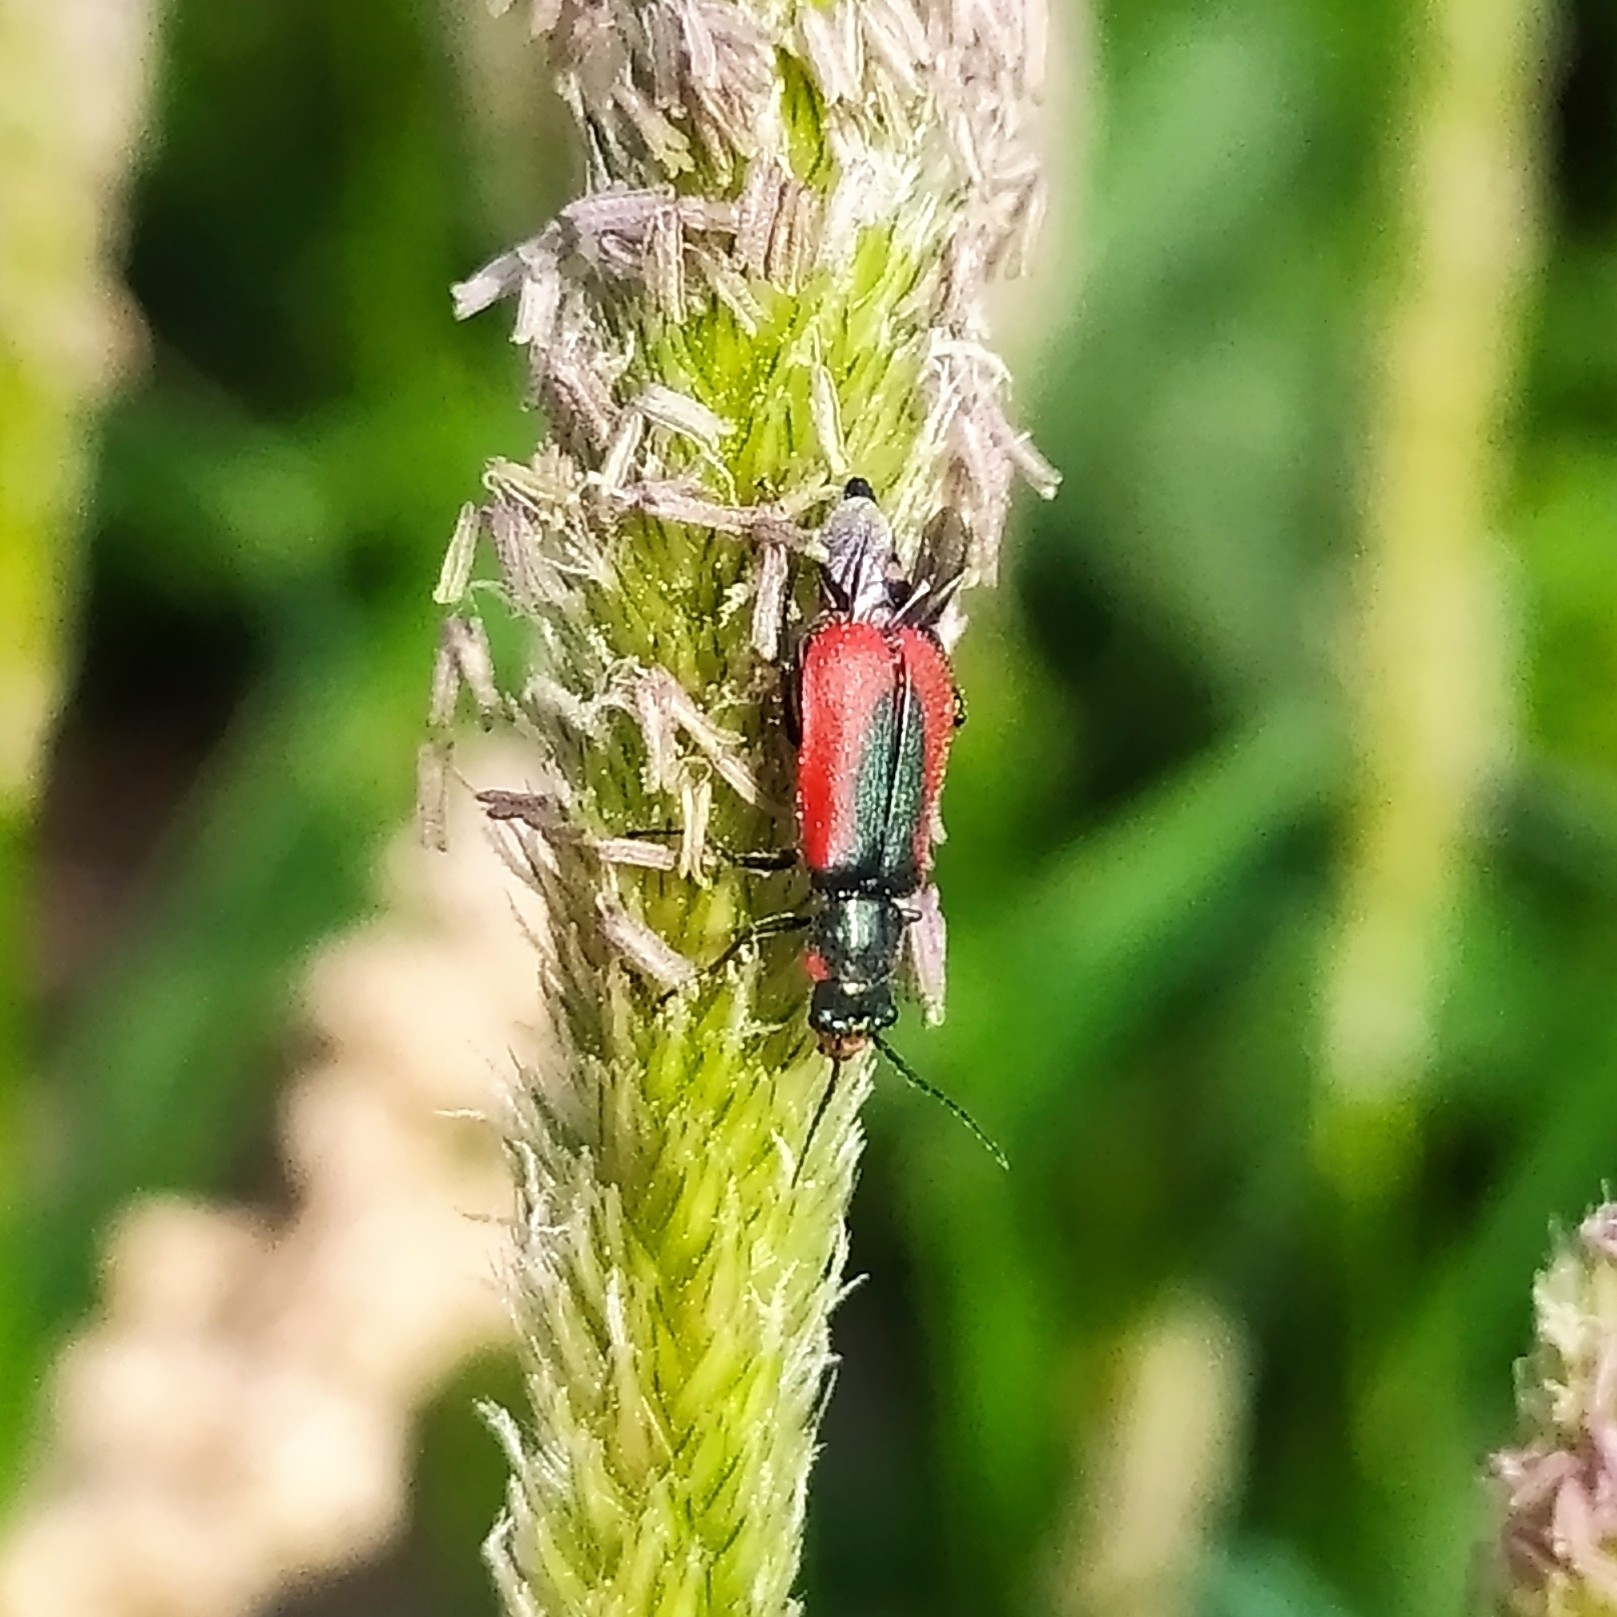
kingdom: Animalia
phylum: Arthropoda
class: Insecta
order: Coleoptera
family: Melyridae
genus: Malachius
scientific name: Malachius aeneus
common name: Scarlet malachite beetle
